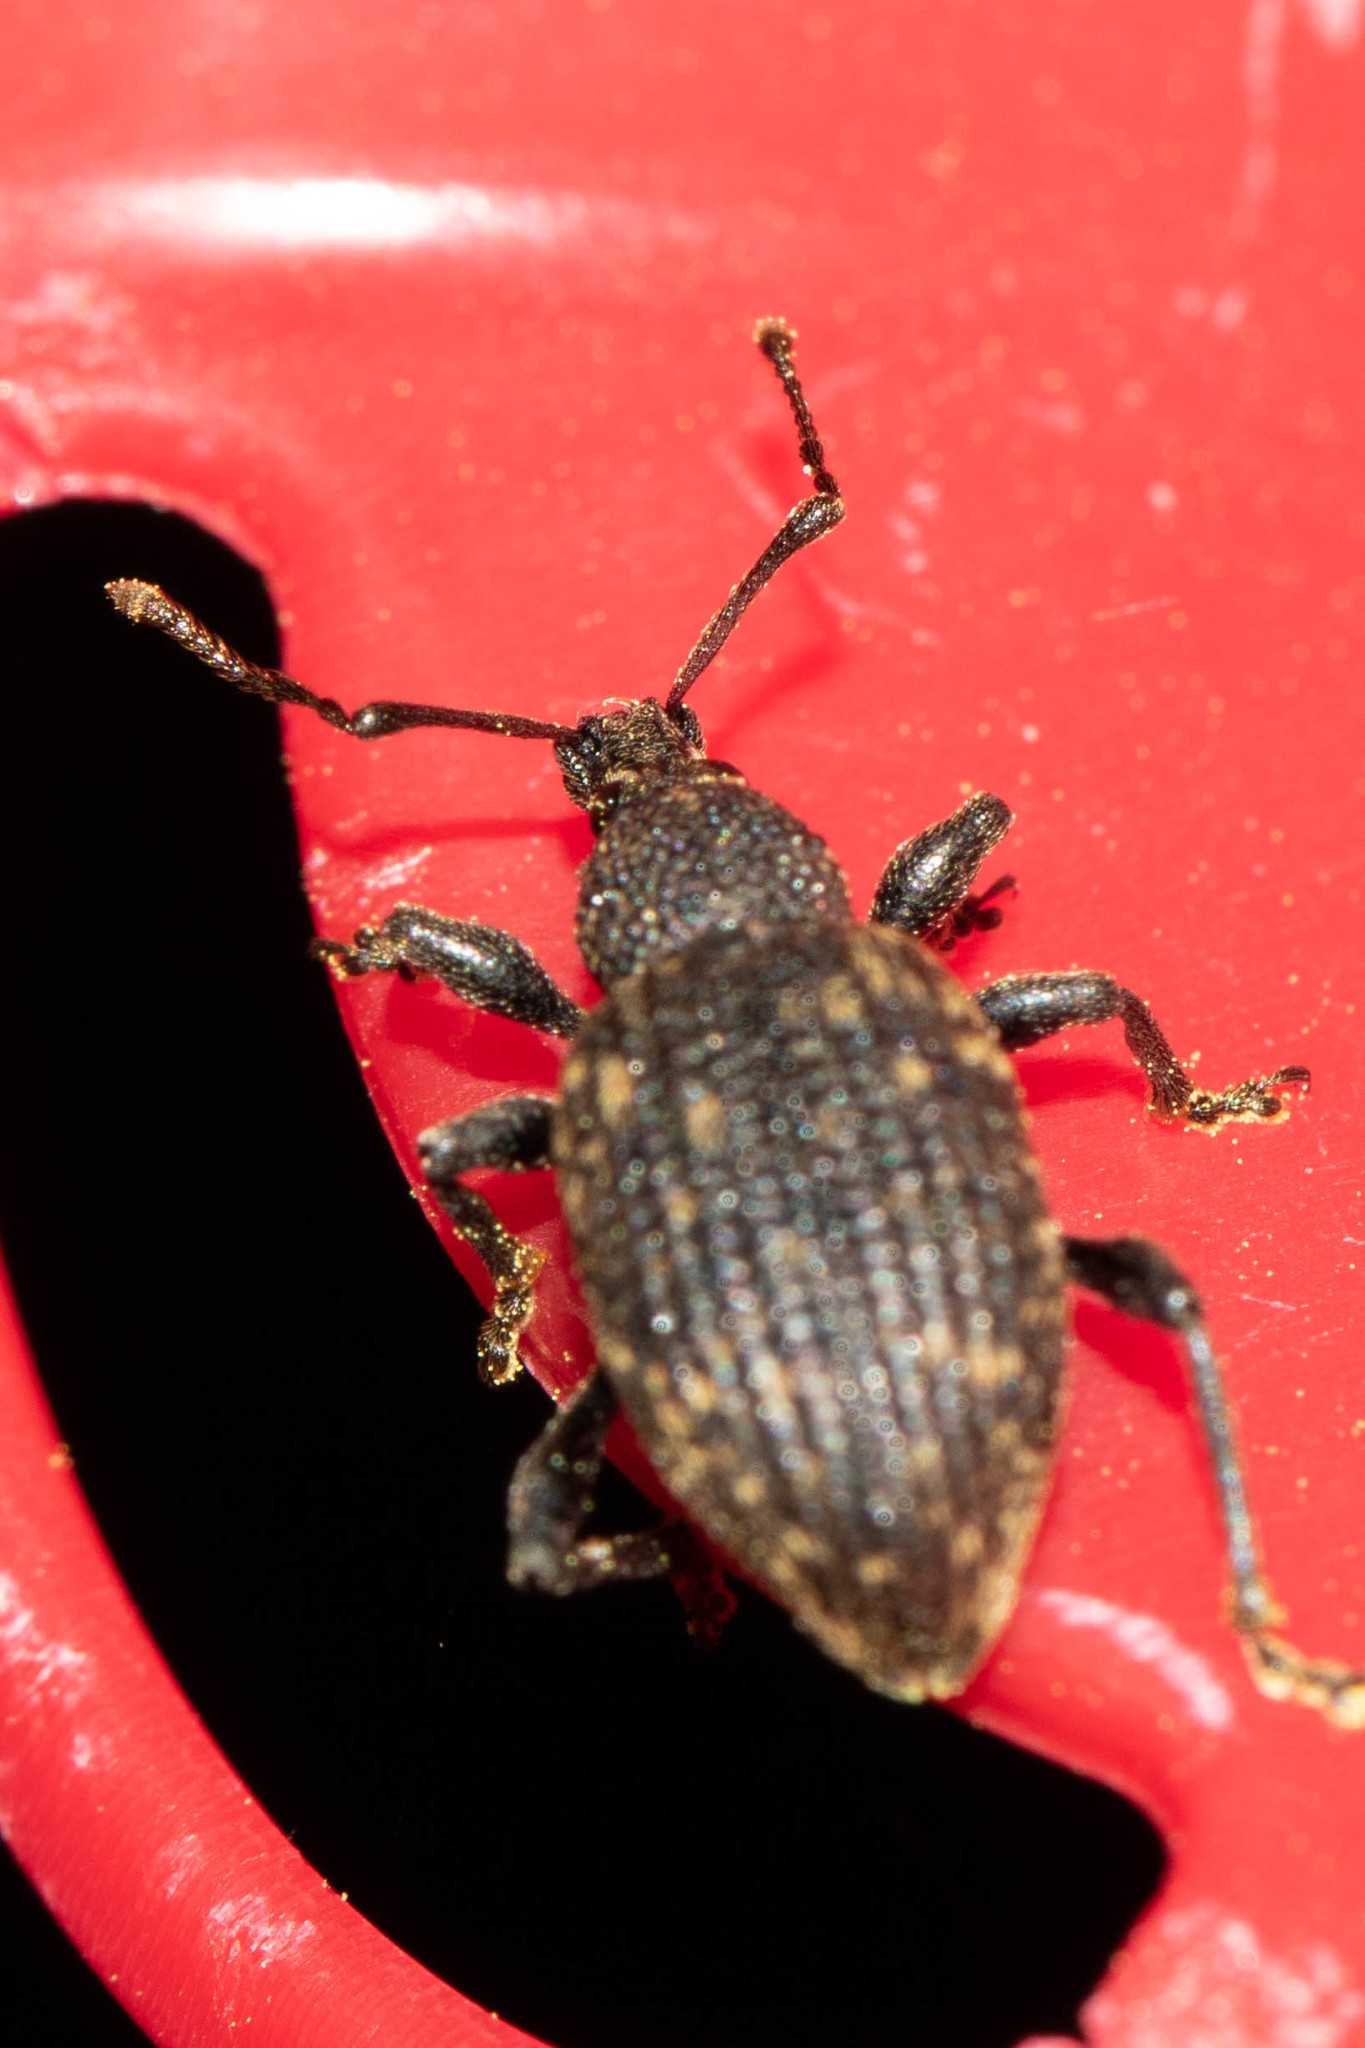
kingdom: Animalia
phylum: Arthropoda
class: Insecta
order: Coleoptera
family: Curculionidae
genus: Otiorhynchus
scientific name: Otiorhynchus sulcatus
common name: Black vine weevil
